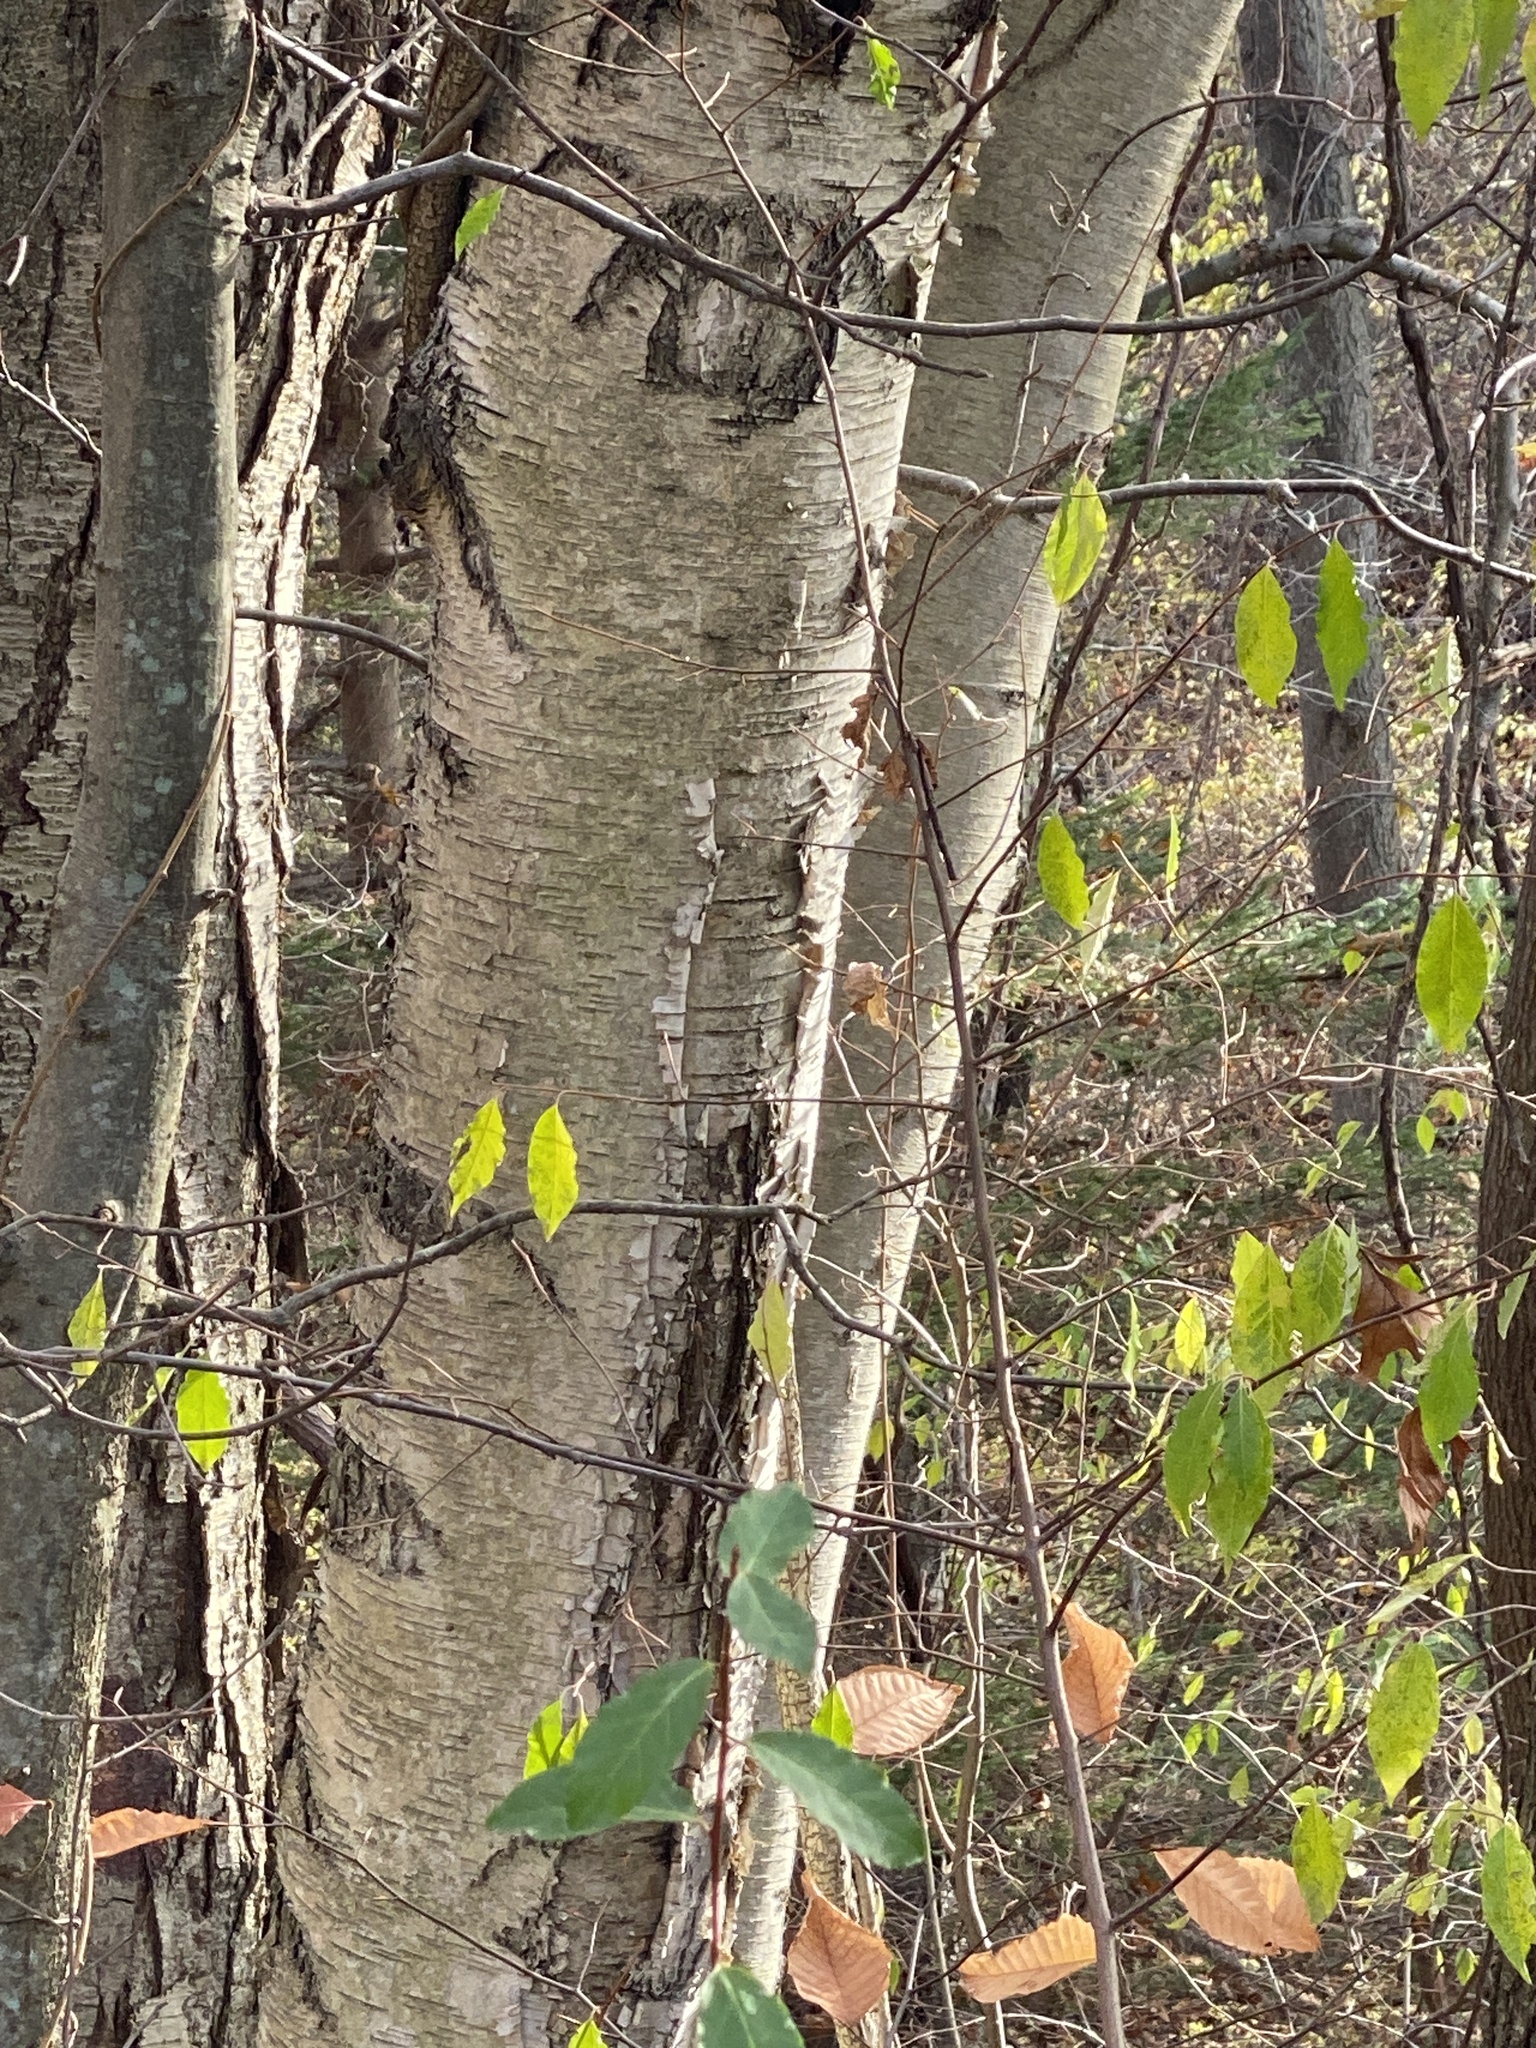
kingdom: Plantae
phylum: Tracheophyta
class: Magnoliopsida
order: Fagales
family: Betulaceae
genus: Betula
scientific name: Betula papyrifera
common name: Paper birch
